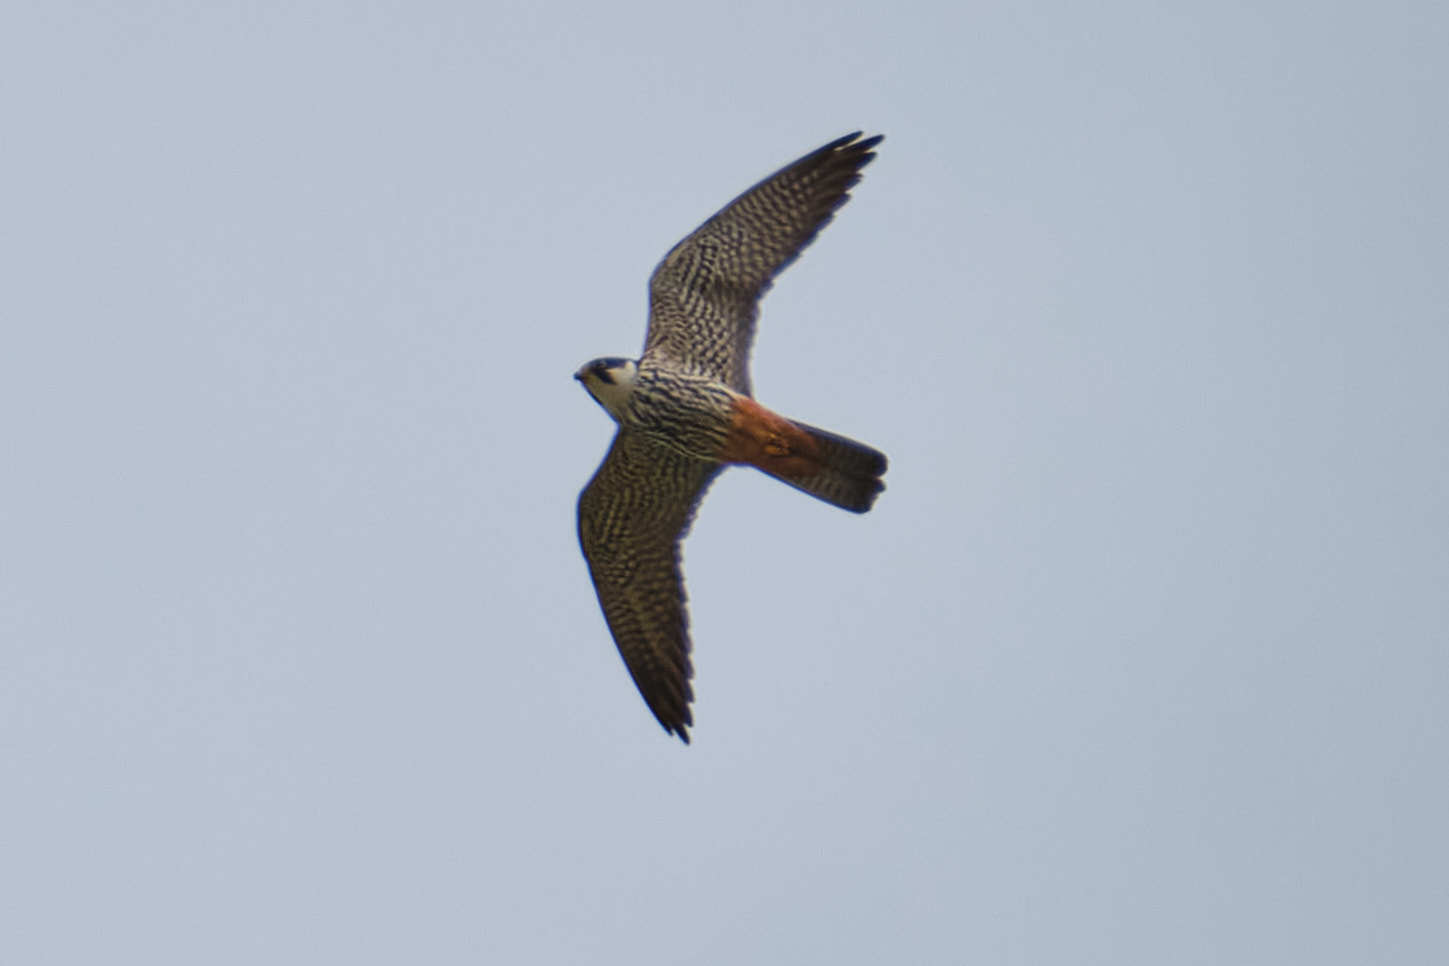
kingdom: Animalia
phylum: Chordata
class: Aves
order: Falconiformes
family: Falconidae
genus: Falco
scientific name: Falco subbuteo
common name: Eurasian hobby
